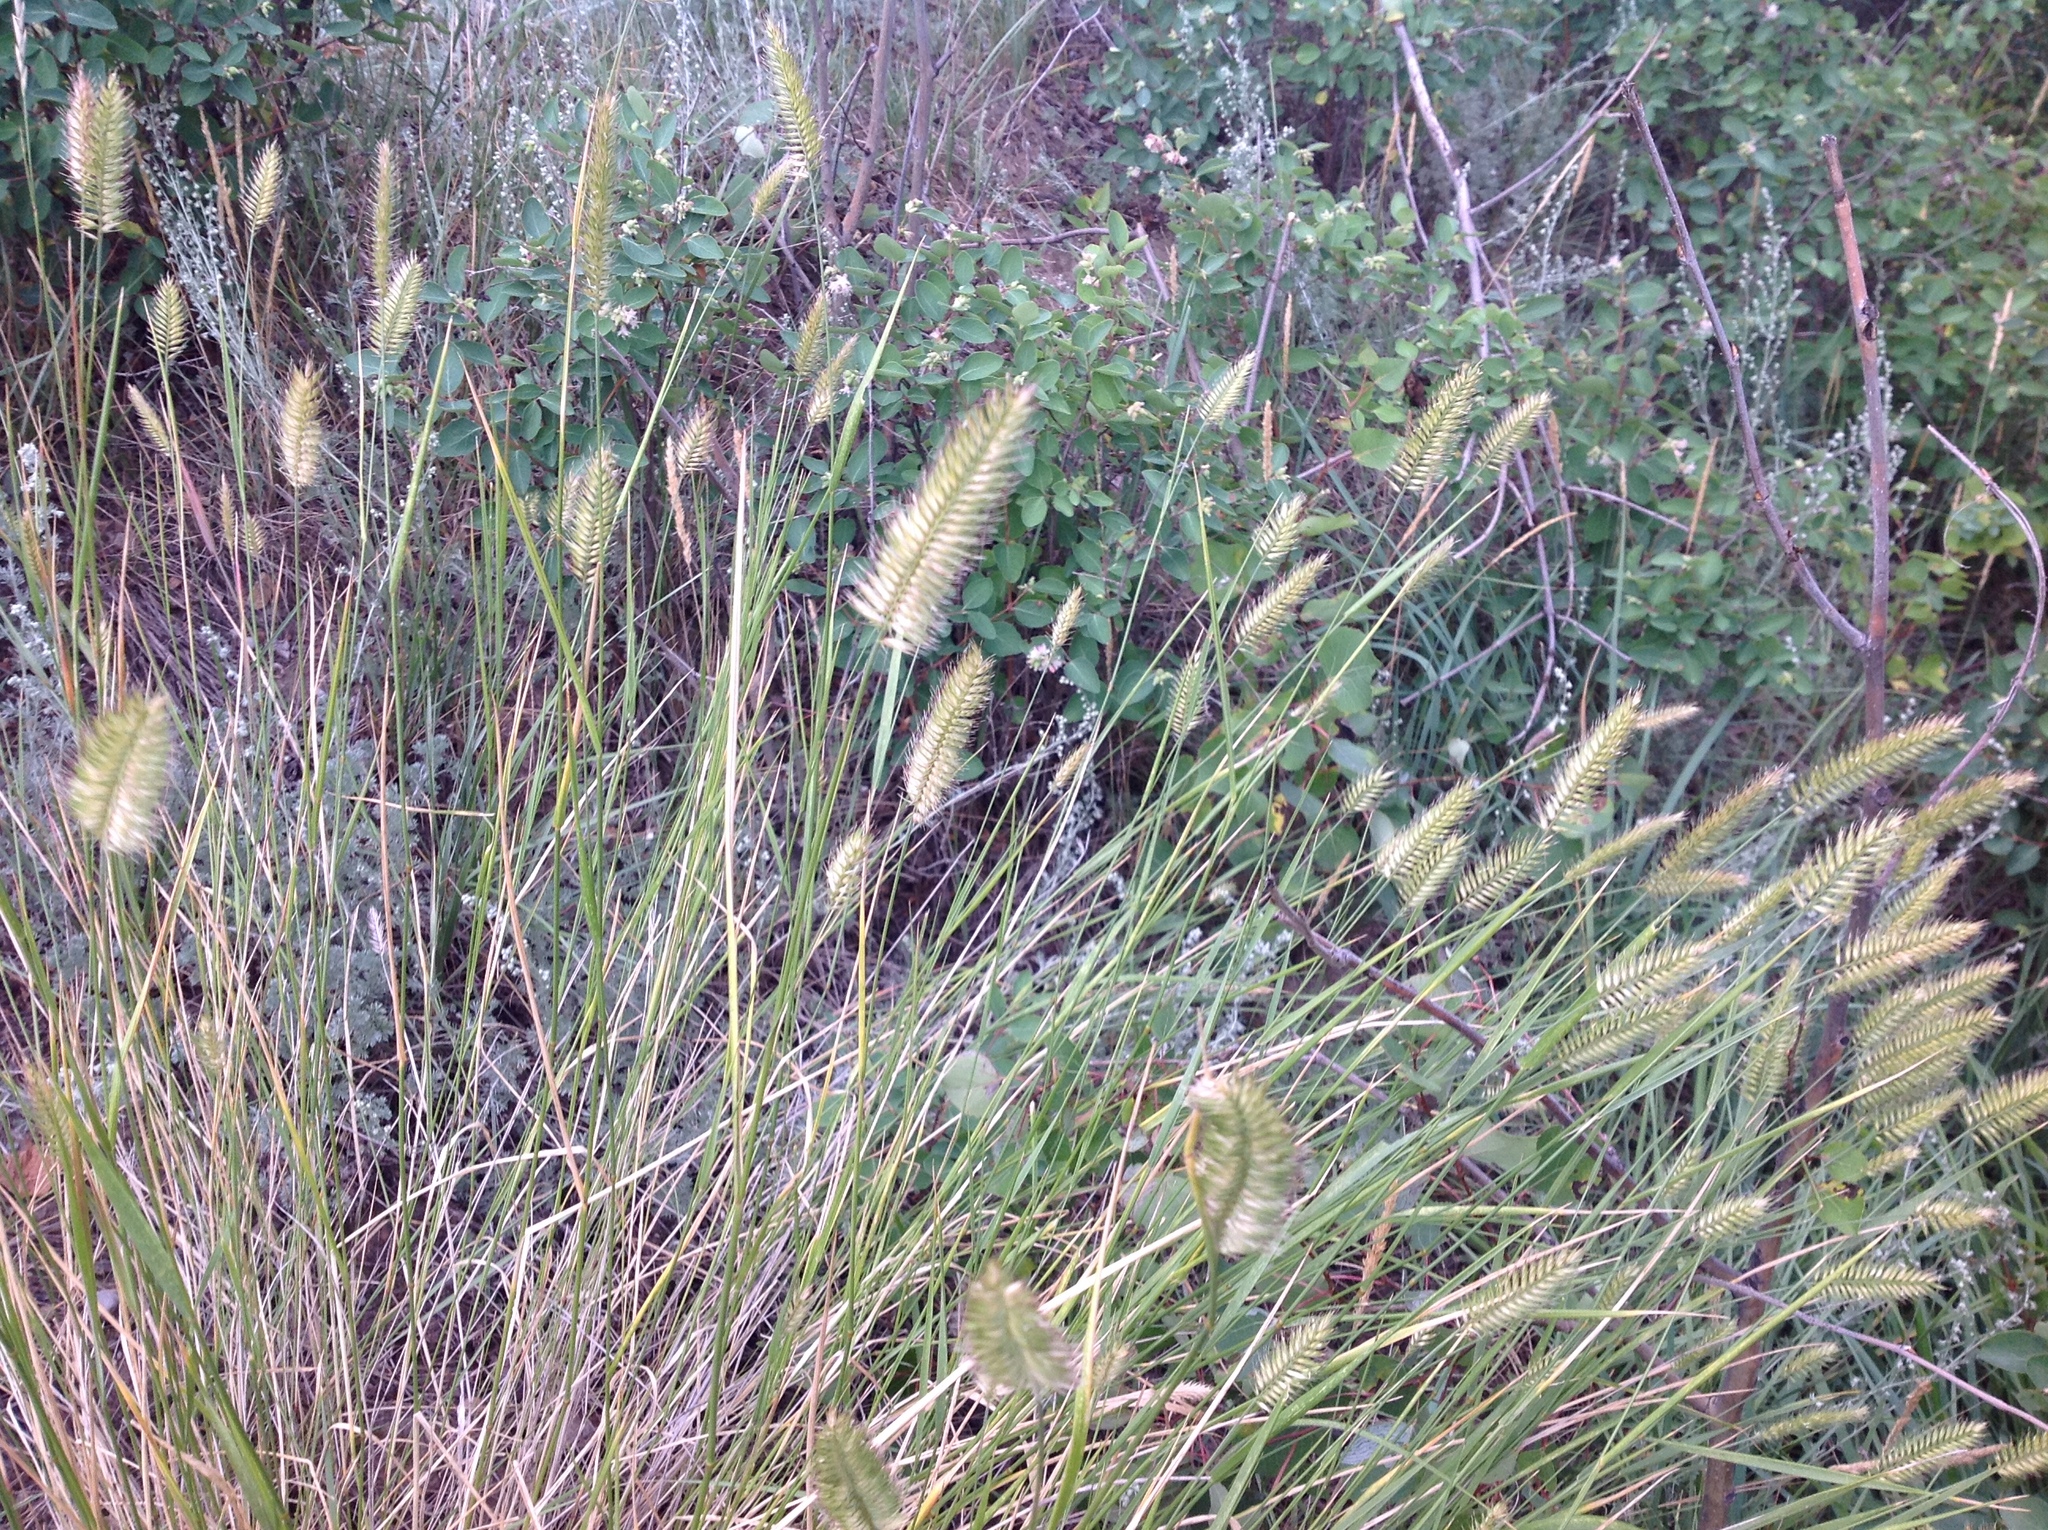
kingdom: Plantae
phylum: Tracheophyta
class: Liliopsida
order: Poales
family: Poaceae
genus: Agropyron
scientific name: Agropyron cristatum
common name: Crested wheatgrass
